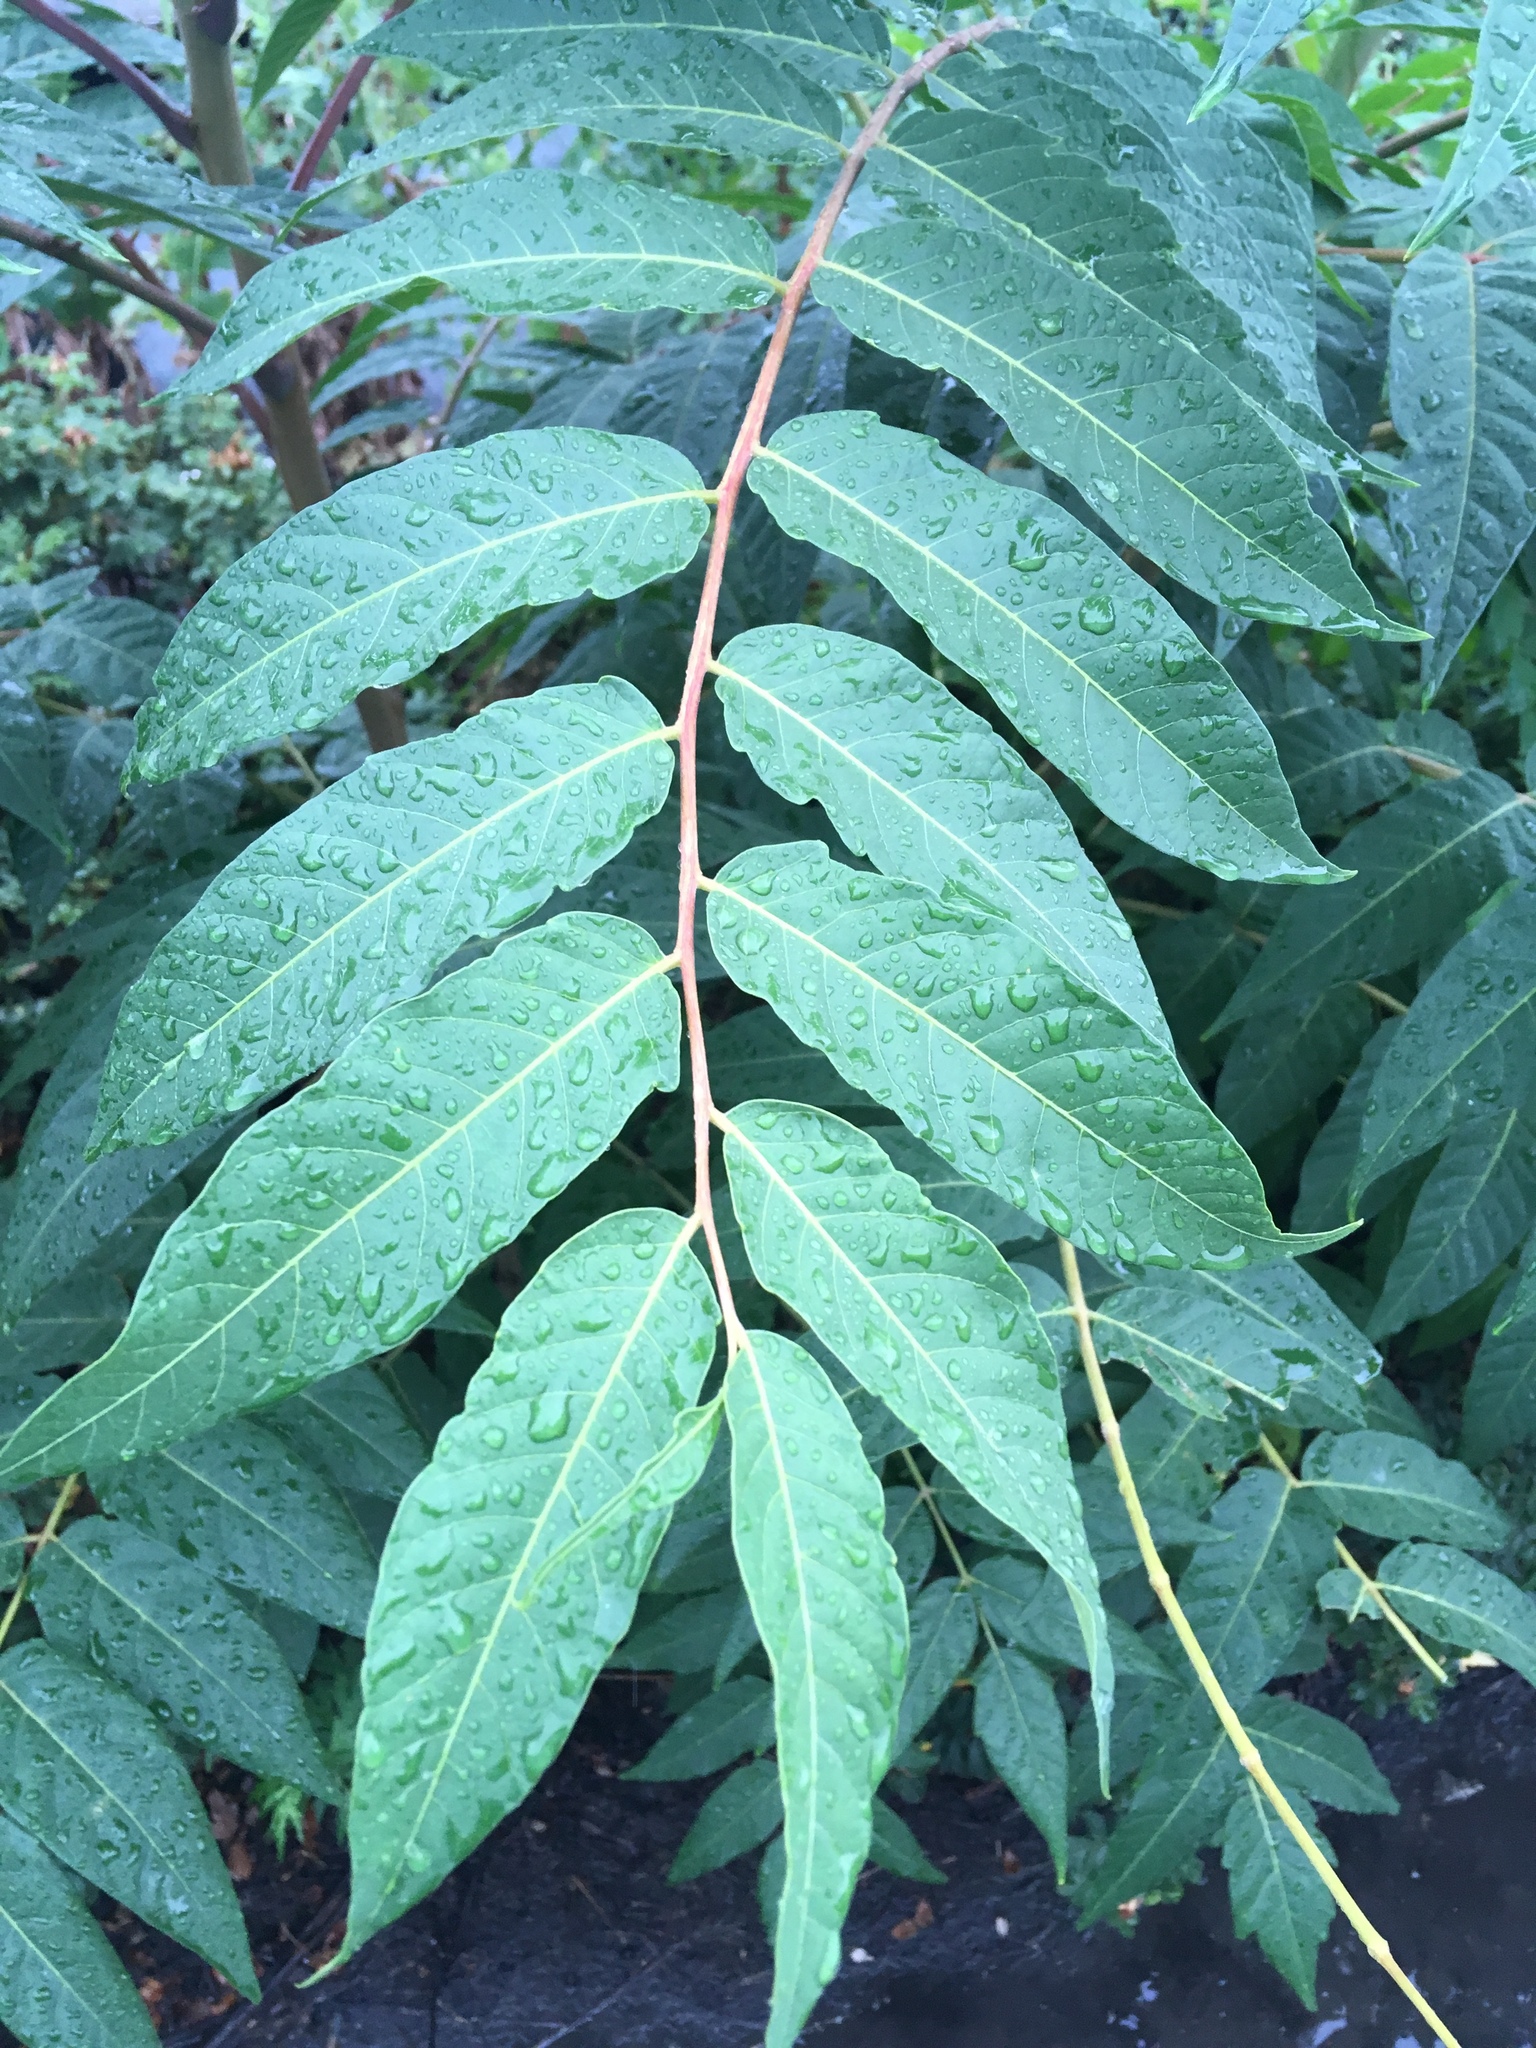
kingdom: Plantae
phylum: Tracheophyta
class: Magnoliopsida
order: Sapindales
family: Simaroubaceae
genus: Ailanthus
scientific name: Ailanthus altissima
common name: Tree-of-heaven
